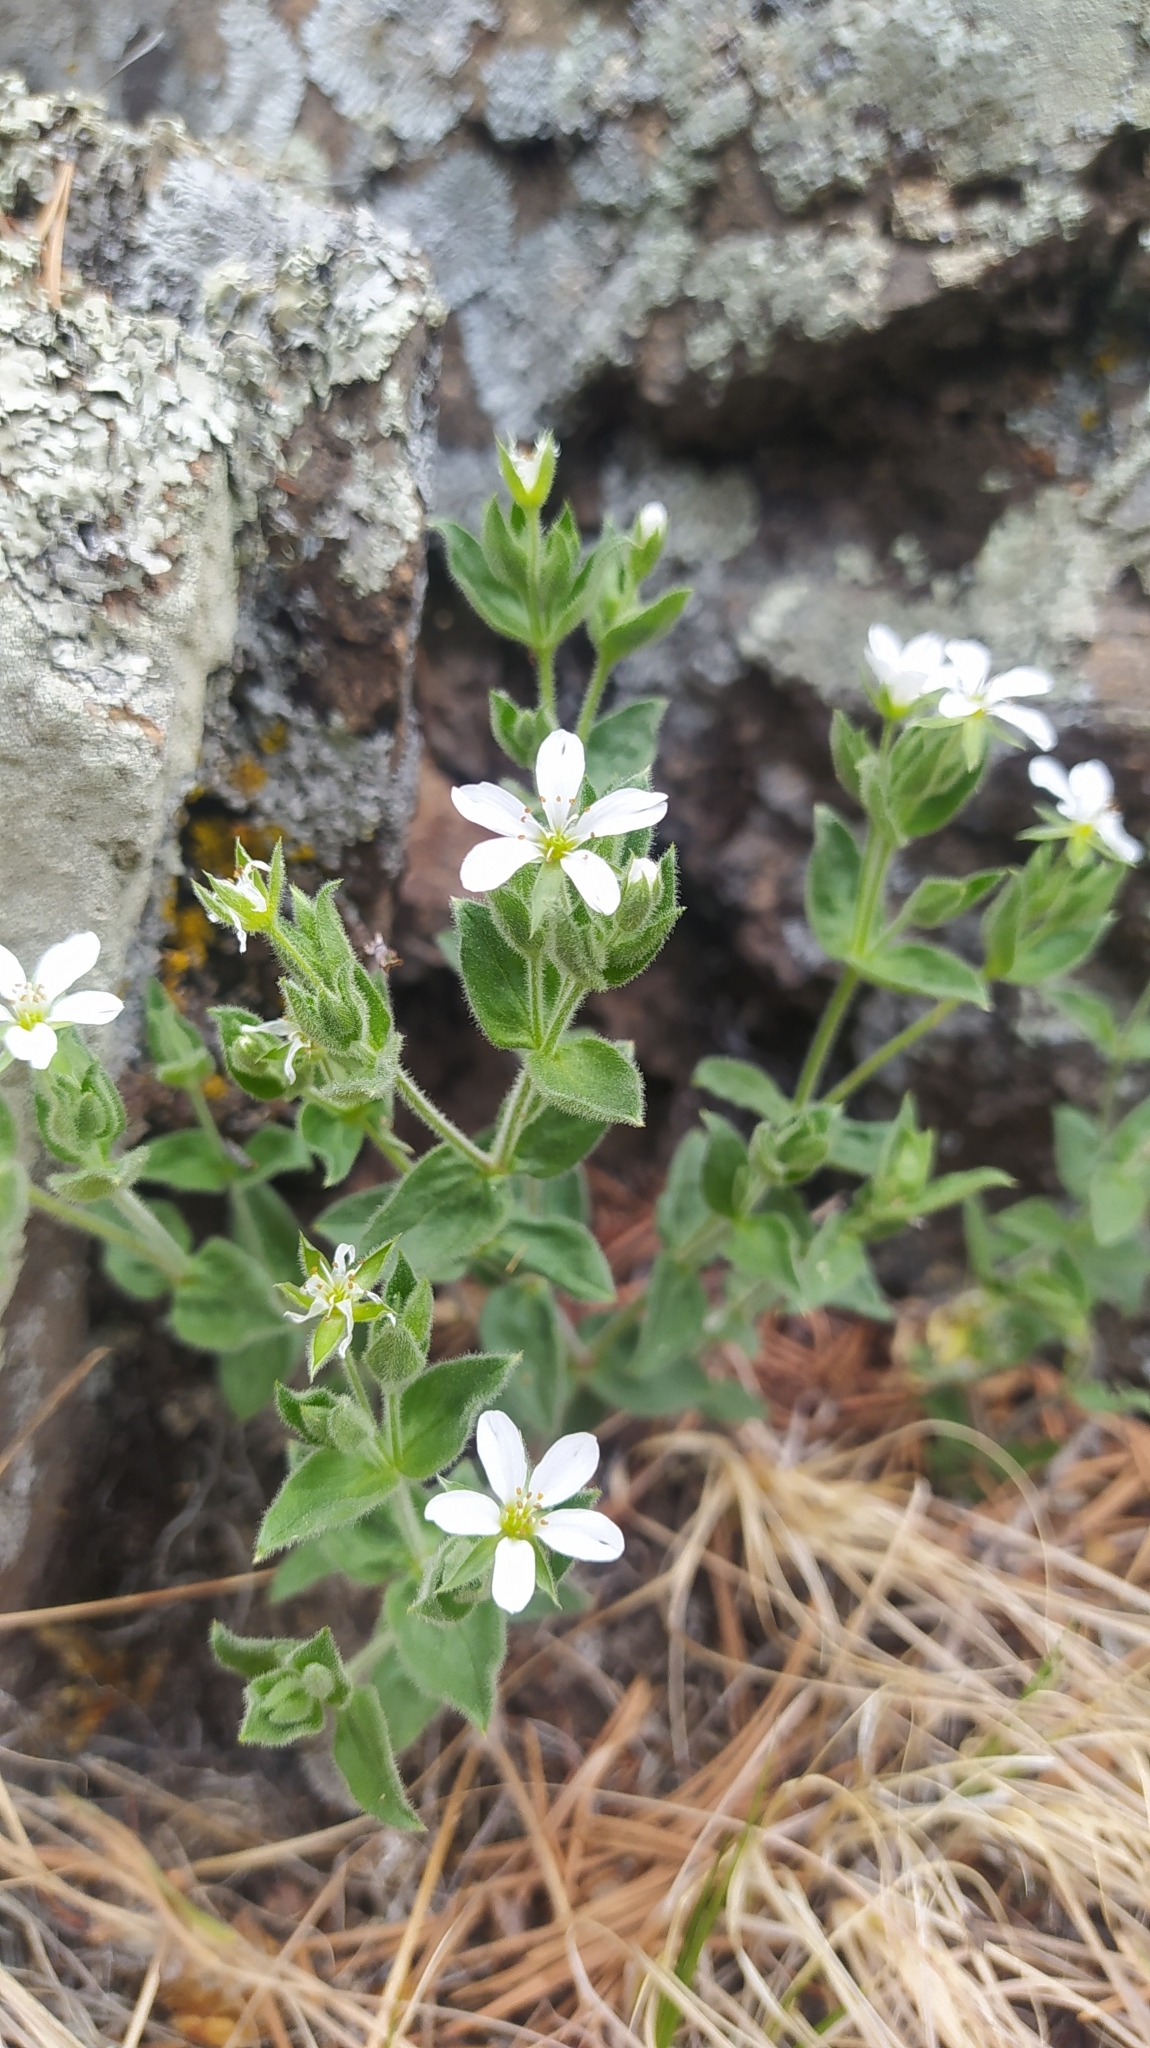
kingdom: Plantae
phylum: Tracheophyta
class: Magnoliopsida
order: Caryophyllales
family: Caryophyllaceae
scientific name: Caryophyllaceae
